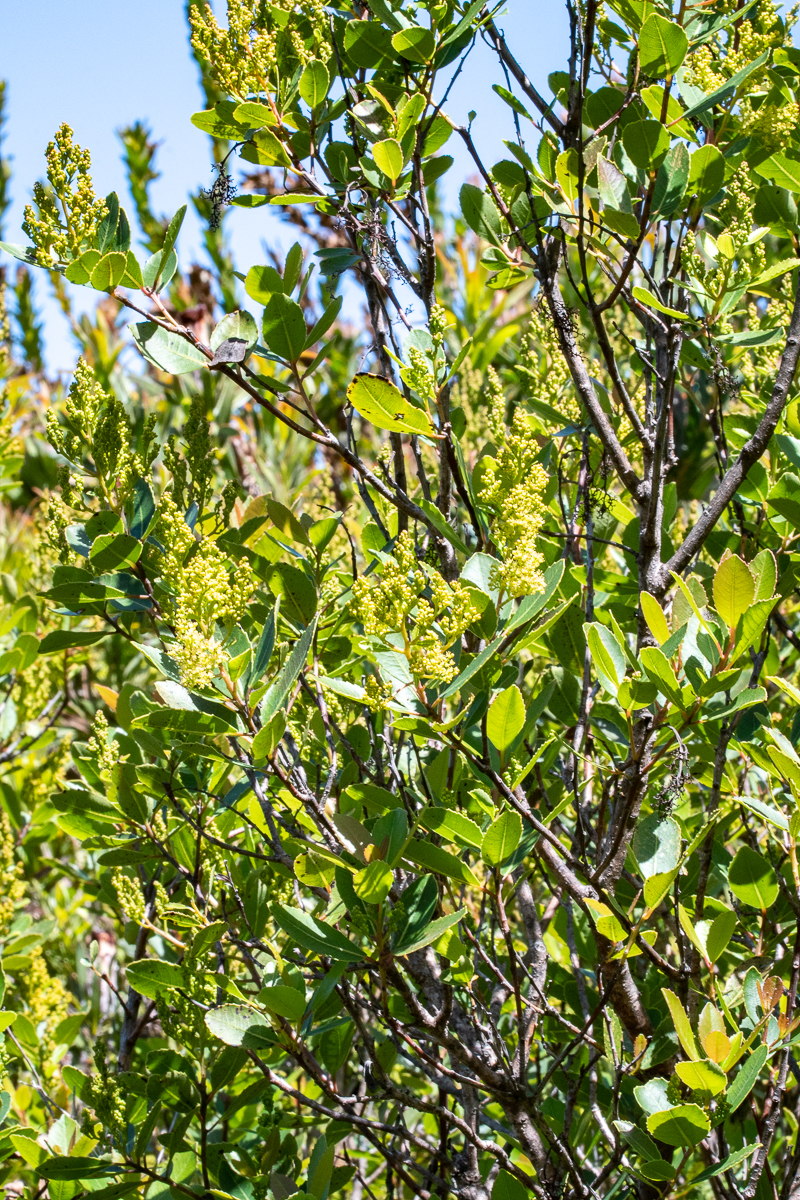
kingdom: Plantae
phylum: Tracheophyta
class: Magnoliopsida
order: Sapindales
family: Anacardiaceae
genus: Laurophyllus
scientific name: Laurophyllus capensis
